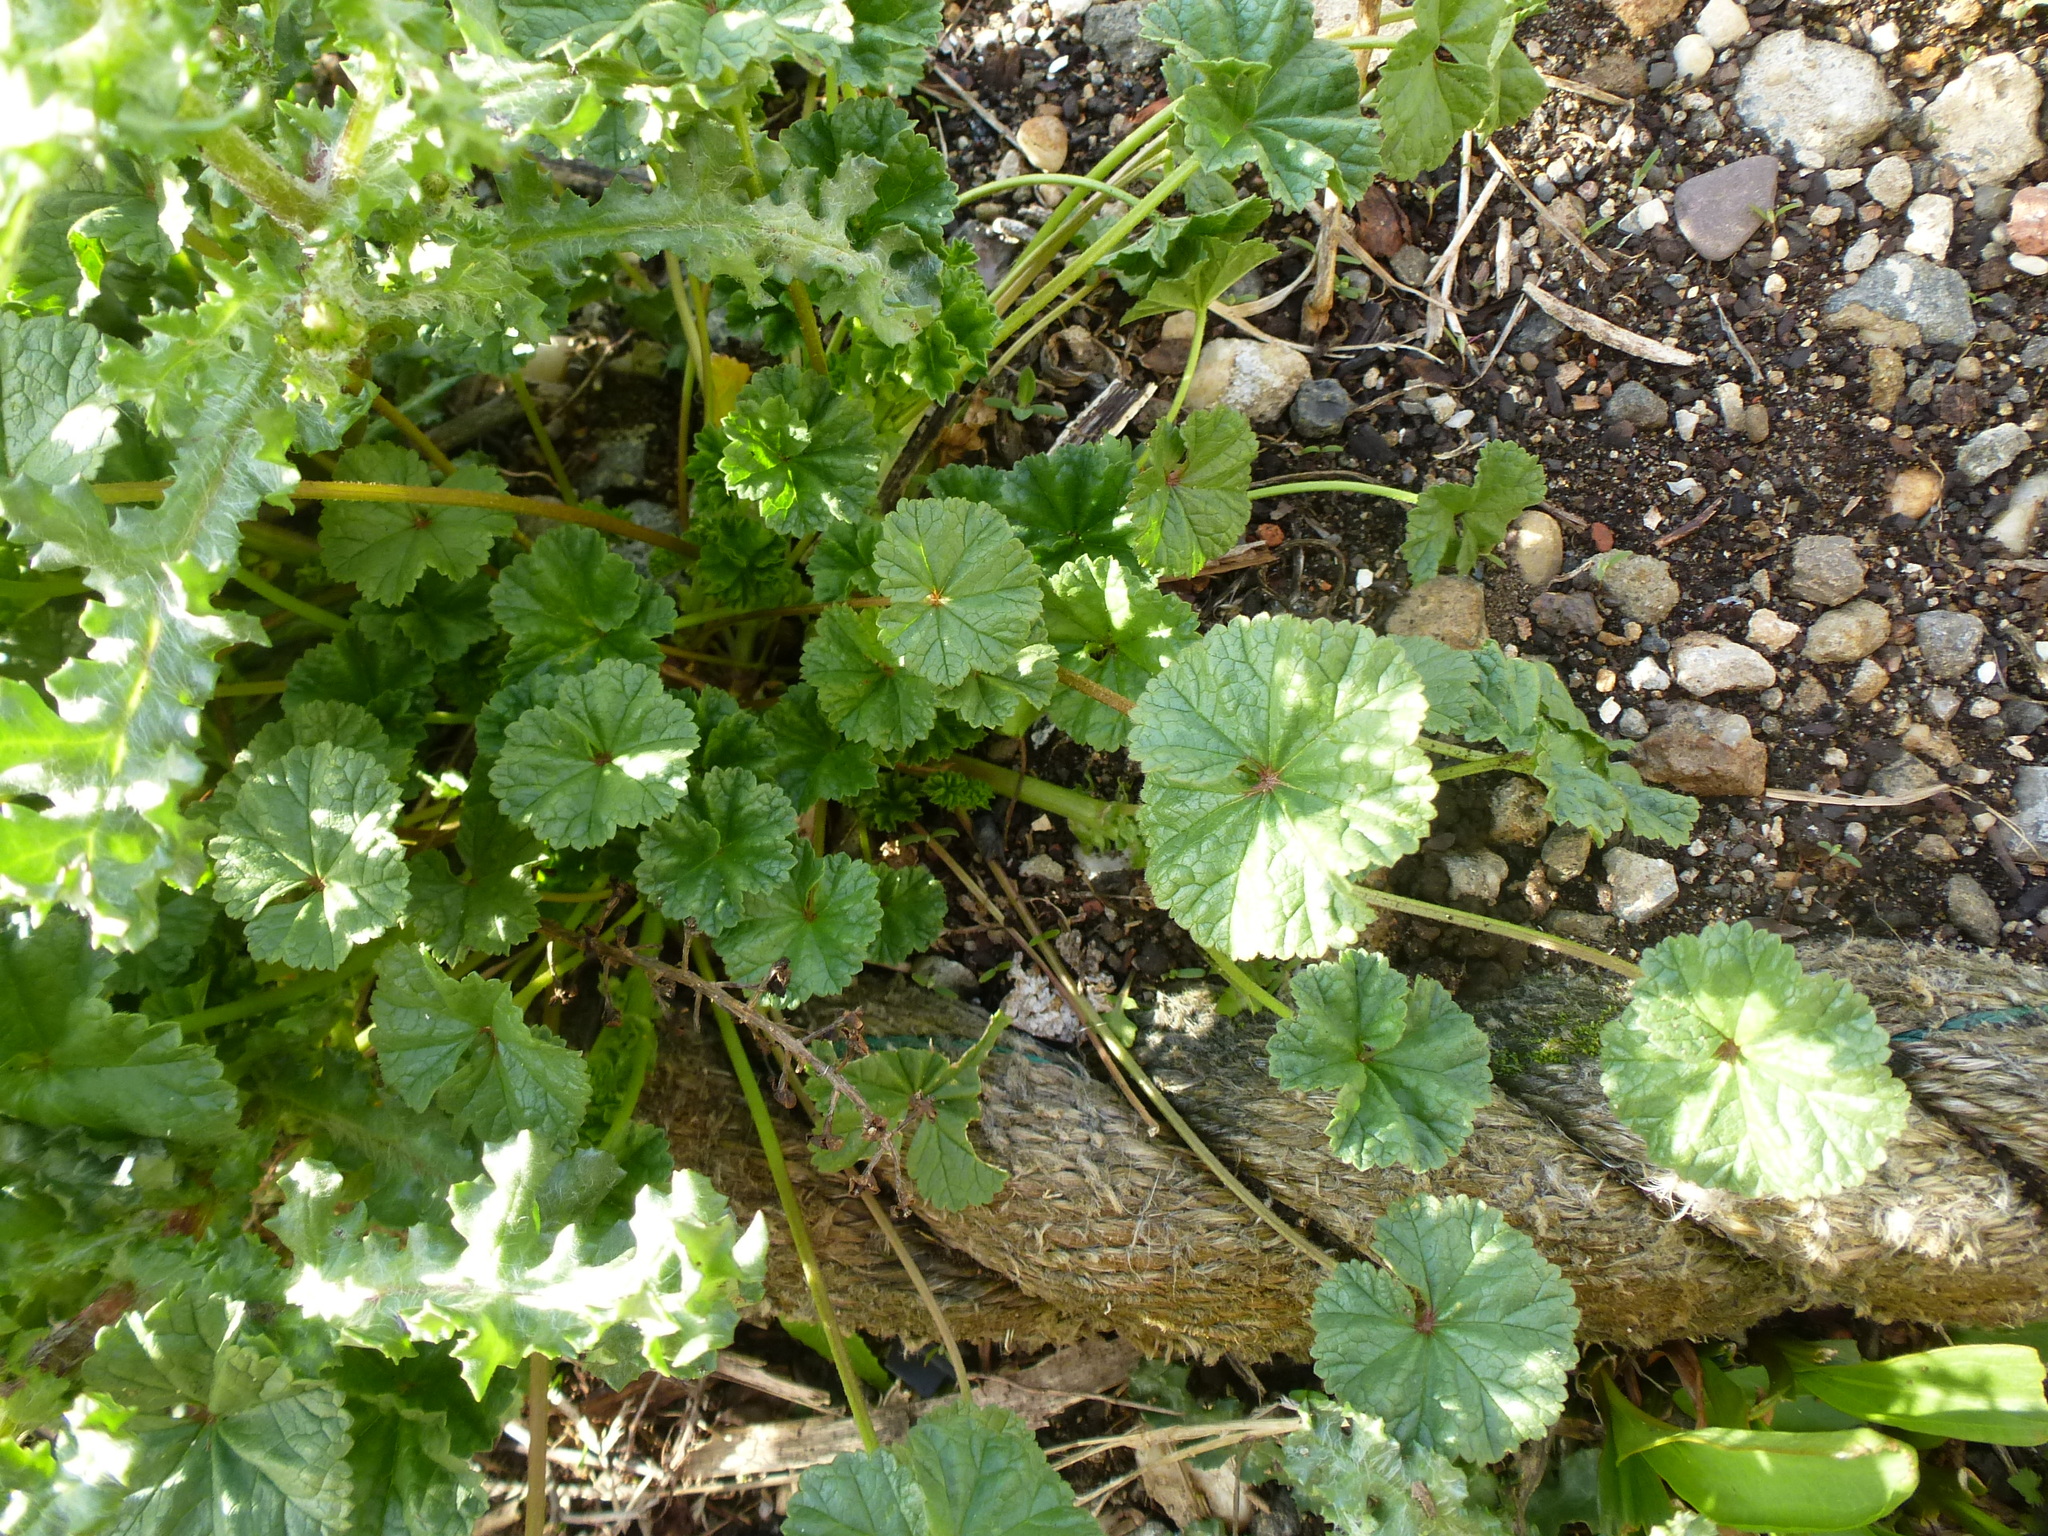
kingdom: Plantae
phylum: Tracheophyta
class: Magnoliopsida
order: Malvales
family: Malvaceae
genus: Malva
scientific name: Malva neglecta
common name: Common mallow
